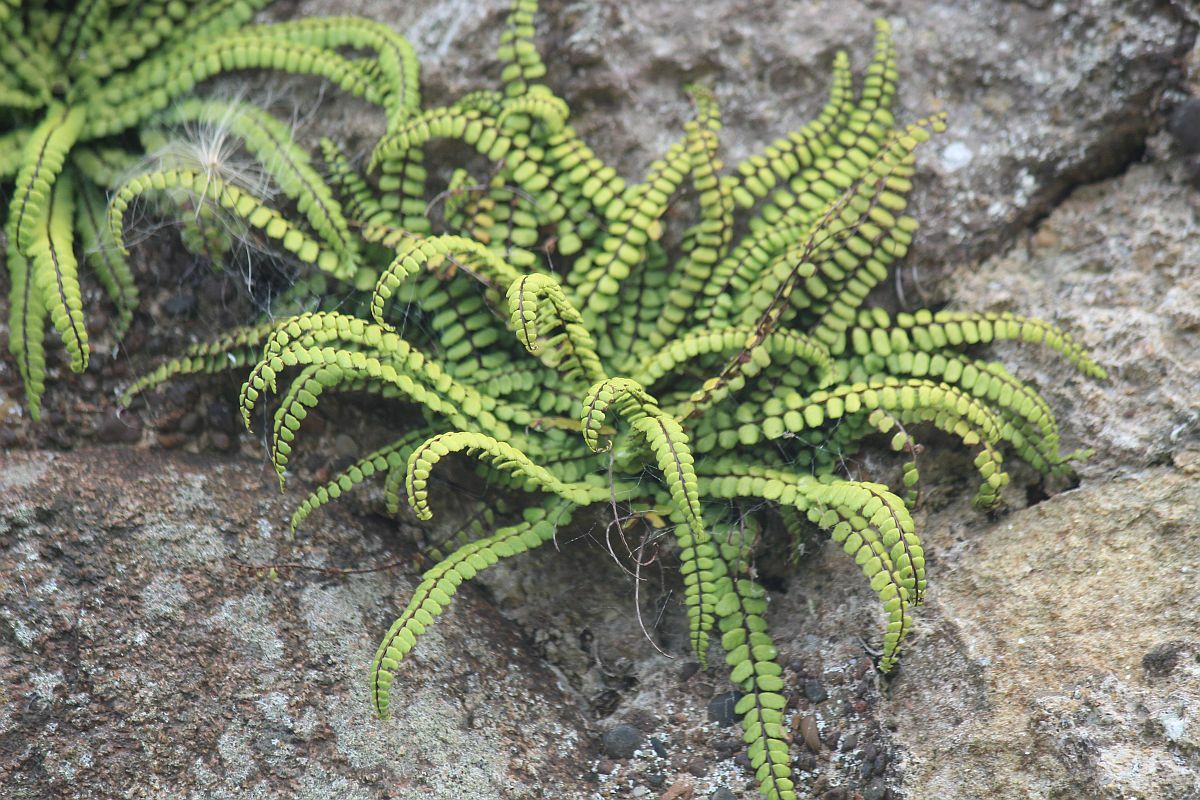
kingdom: Plantae
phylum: Tracheophyta
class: Polypodiopsida
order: Polypodiales
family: Aspleniaceae
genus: Asplenium
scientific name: Asplenium trichomanes
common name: Maidenhair spleenwort
